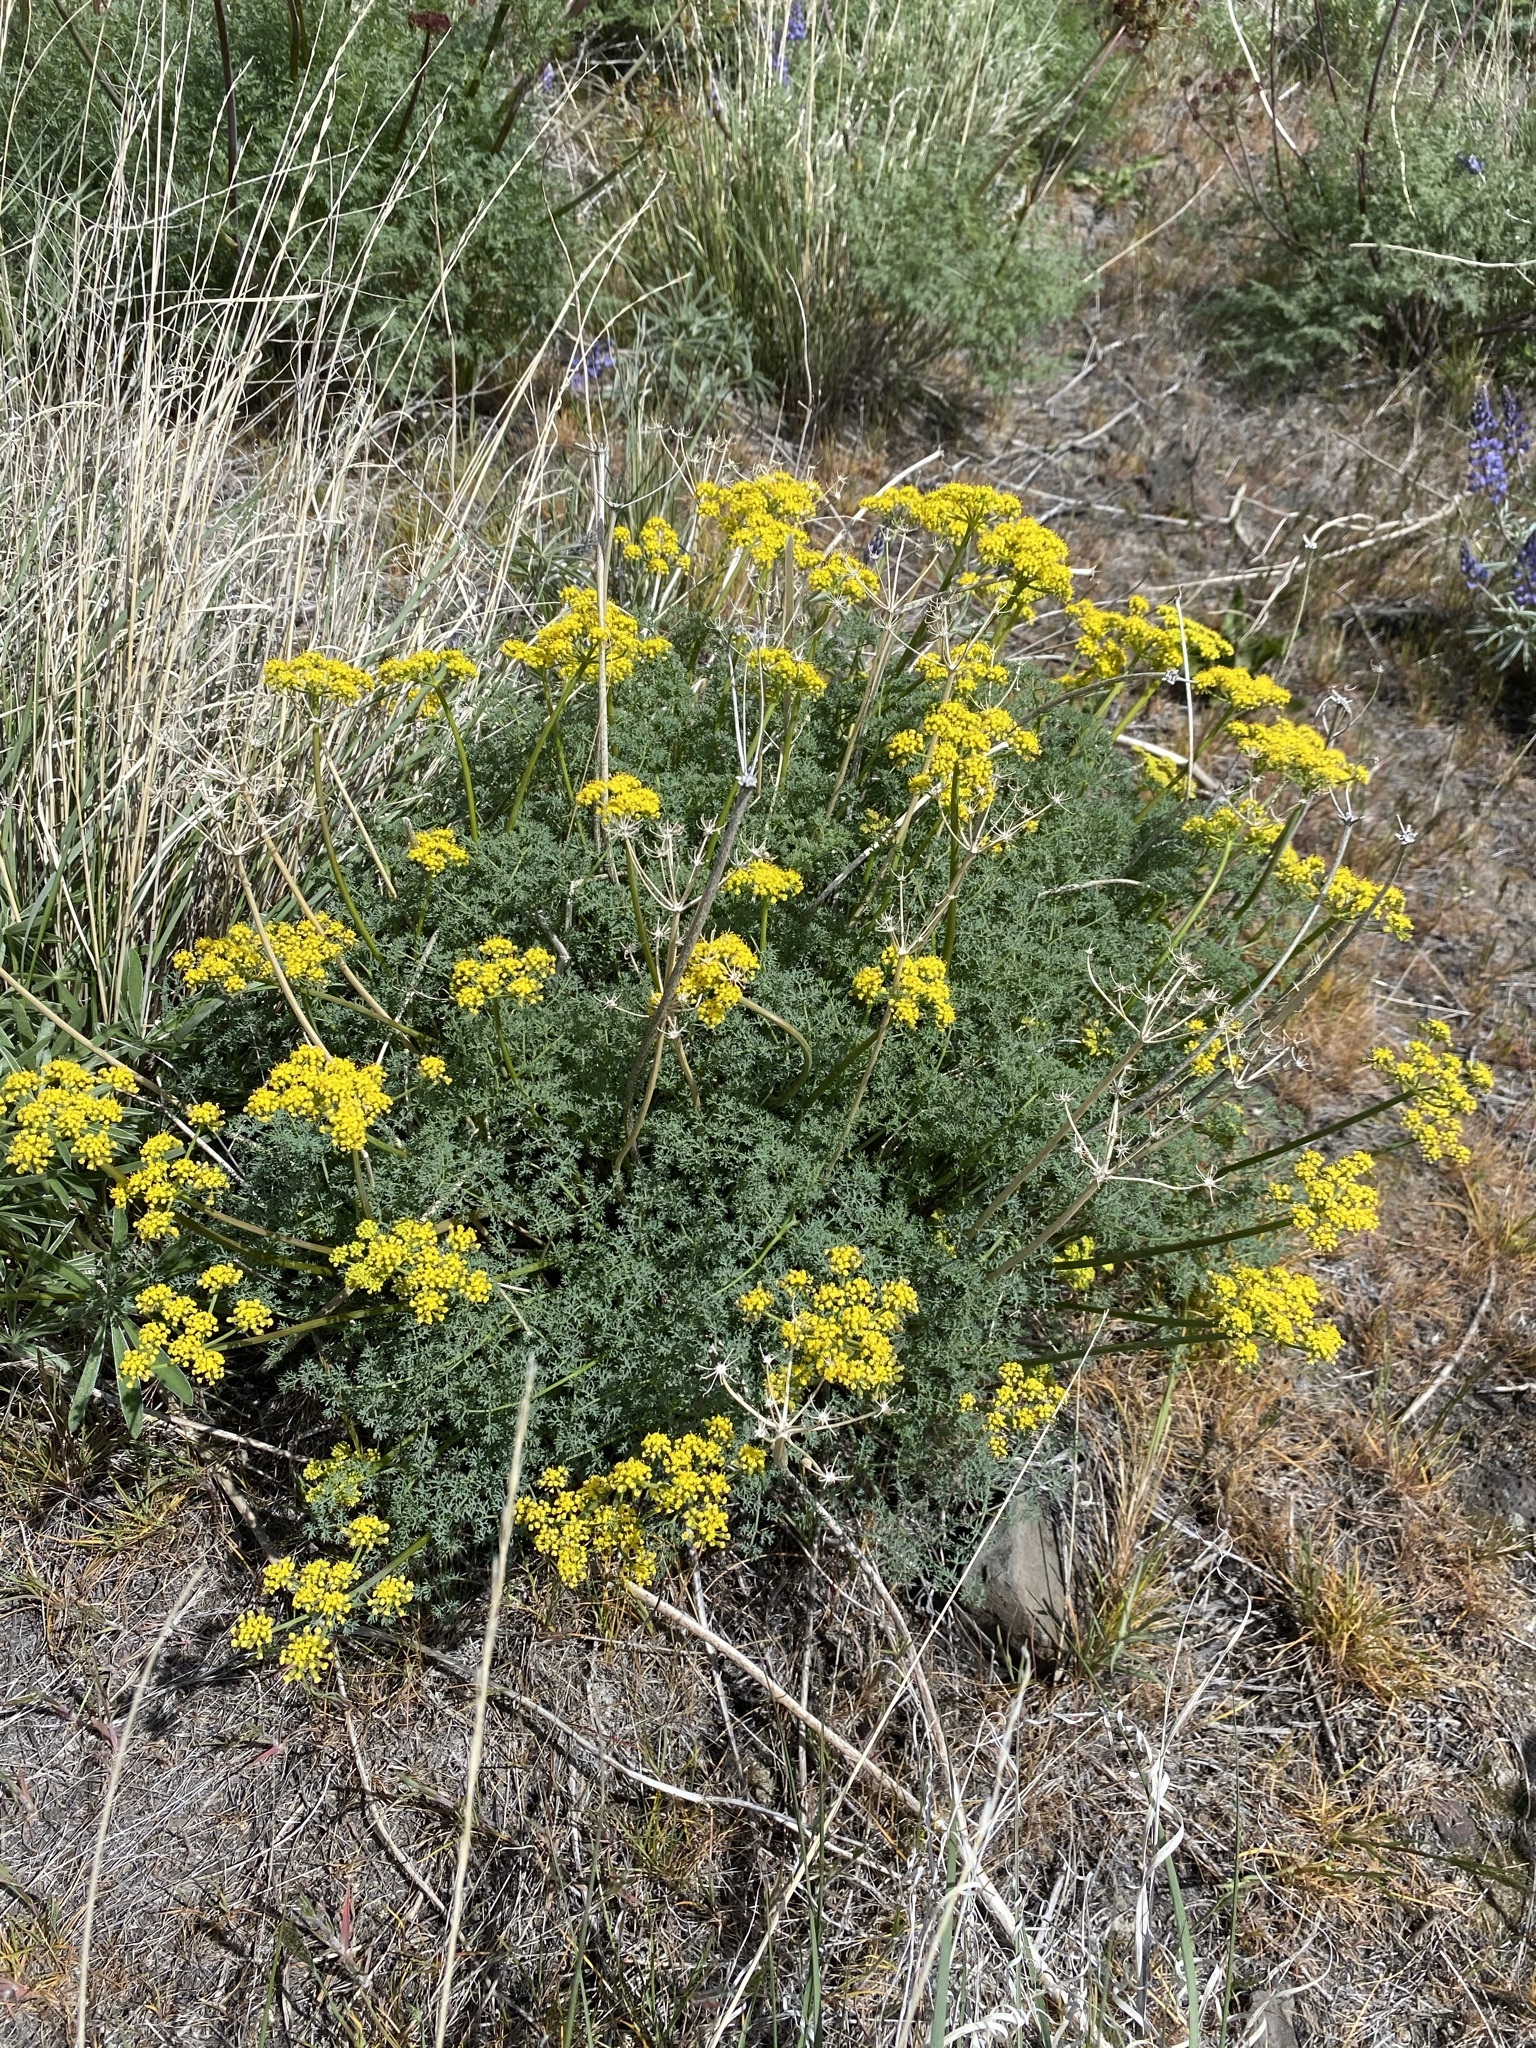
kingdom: Plantae
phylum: Tracheophyta
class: Magnoliopsida
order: Apiales
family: Apiaceae
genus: Lomatium
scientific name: Lomatium papilioniferum
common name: Butterfly lomatium
